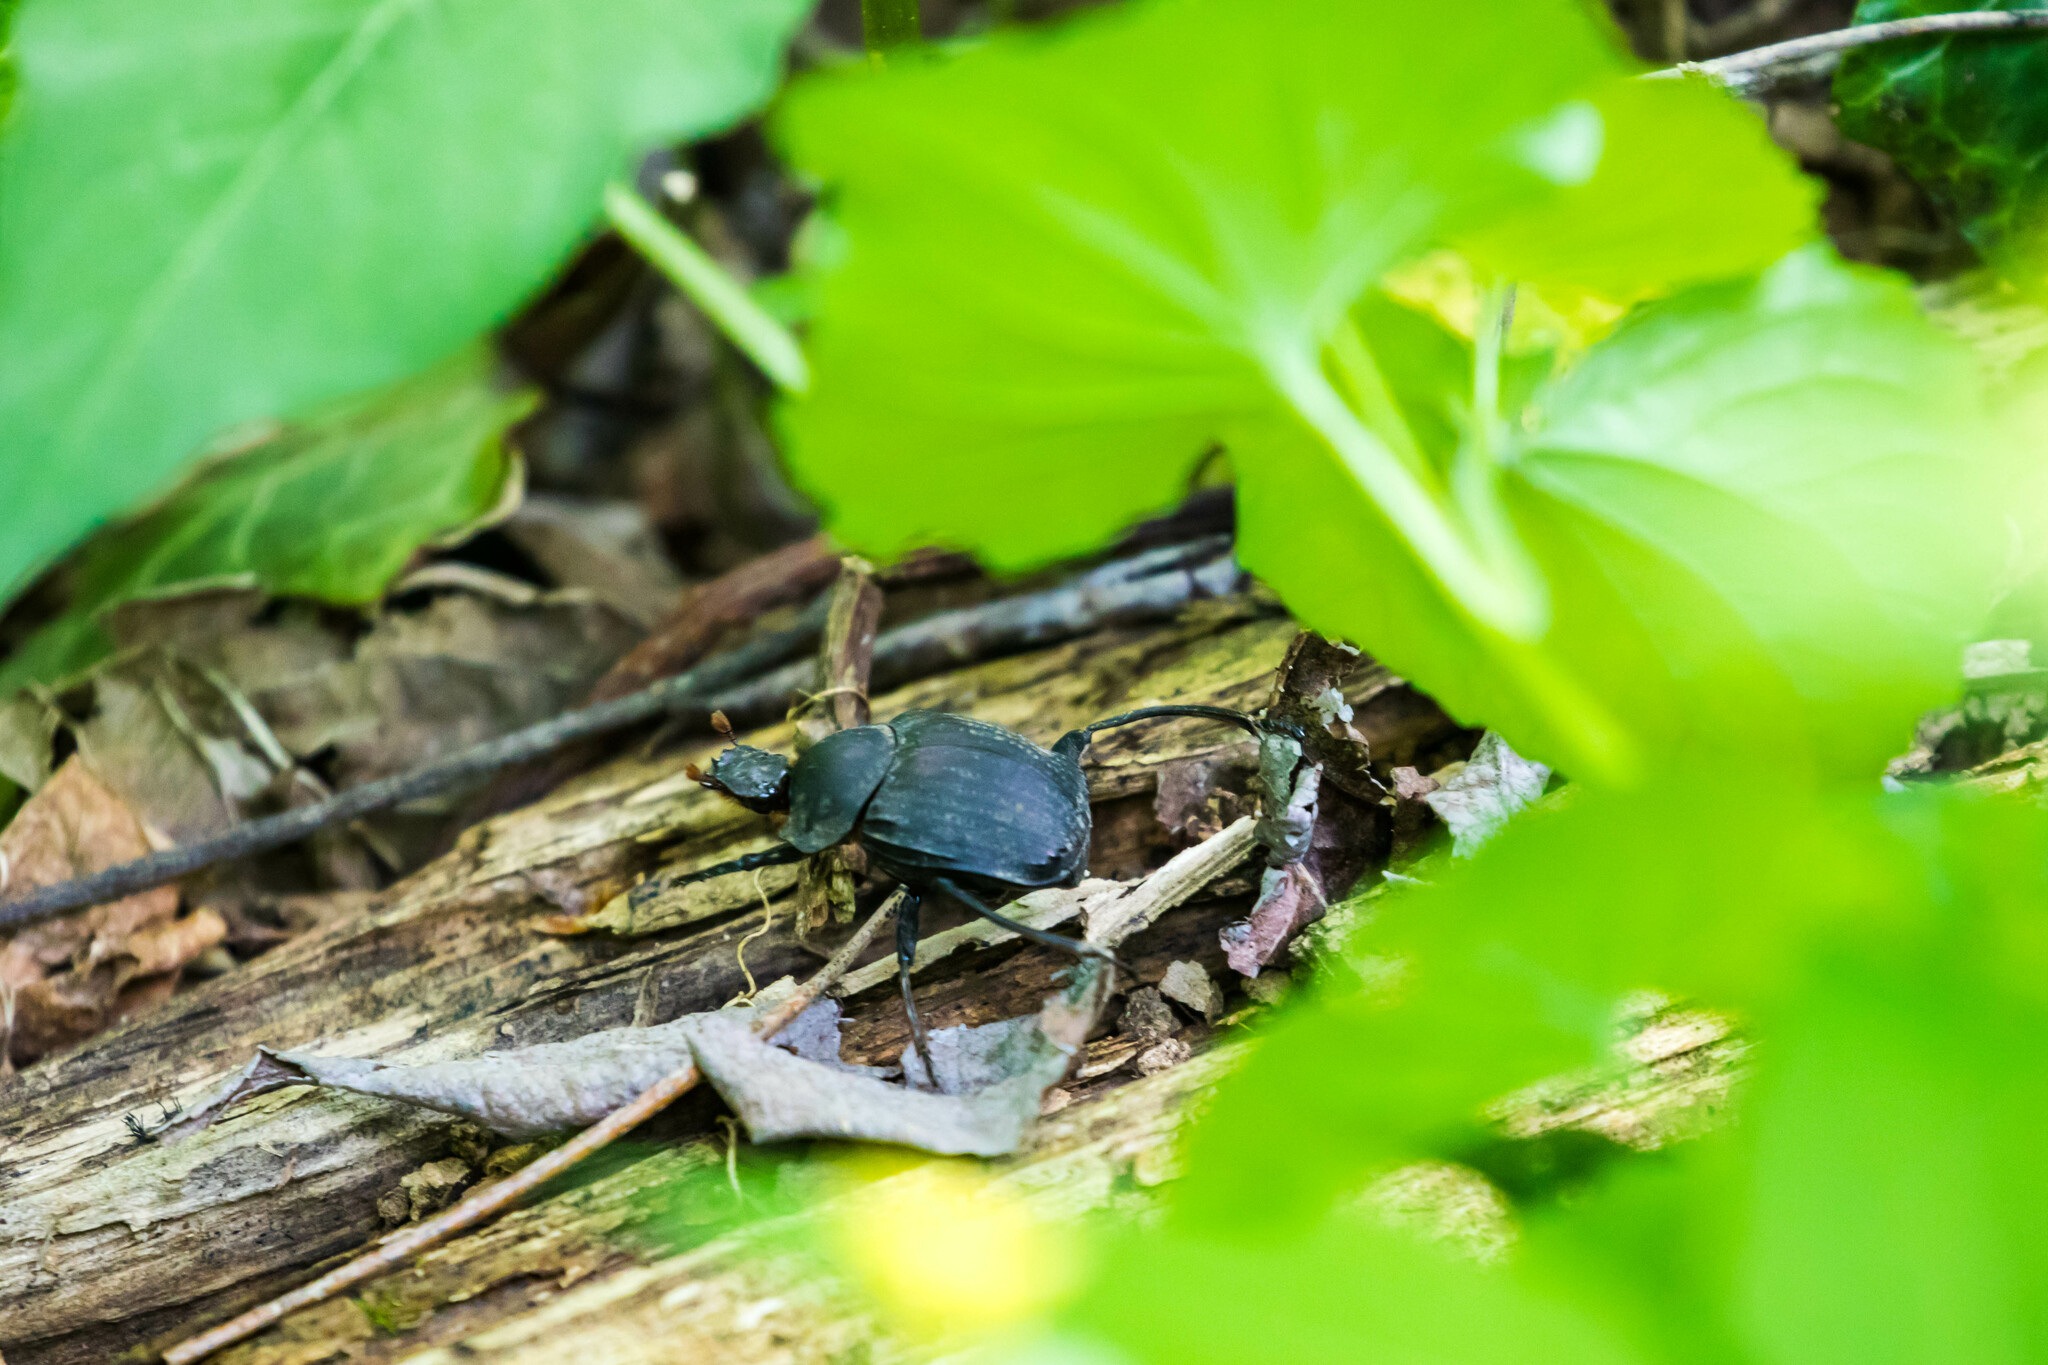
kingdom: Animalia
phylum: Arthropoda
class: Insecta
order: Coleoptera
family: Scarabaeidae
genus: Deltochilum
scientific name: Deltochilum gibbosum
